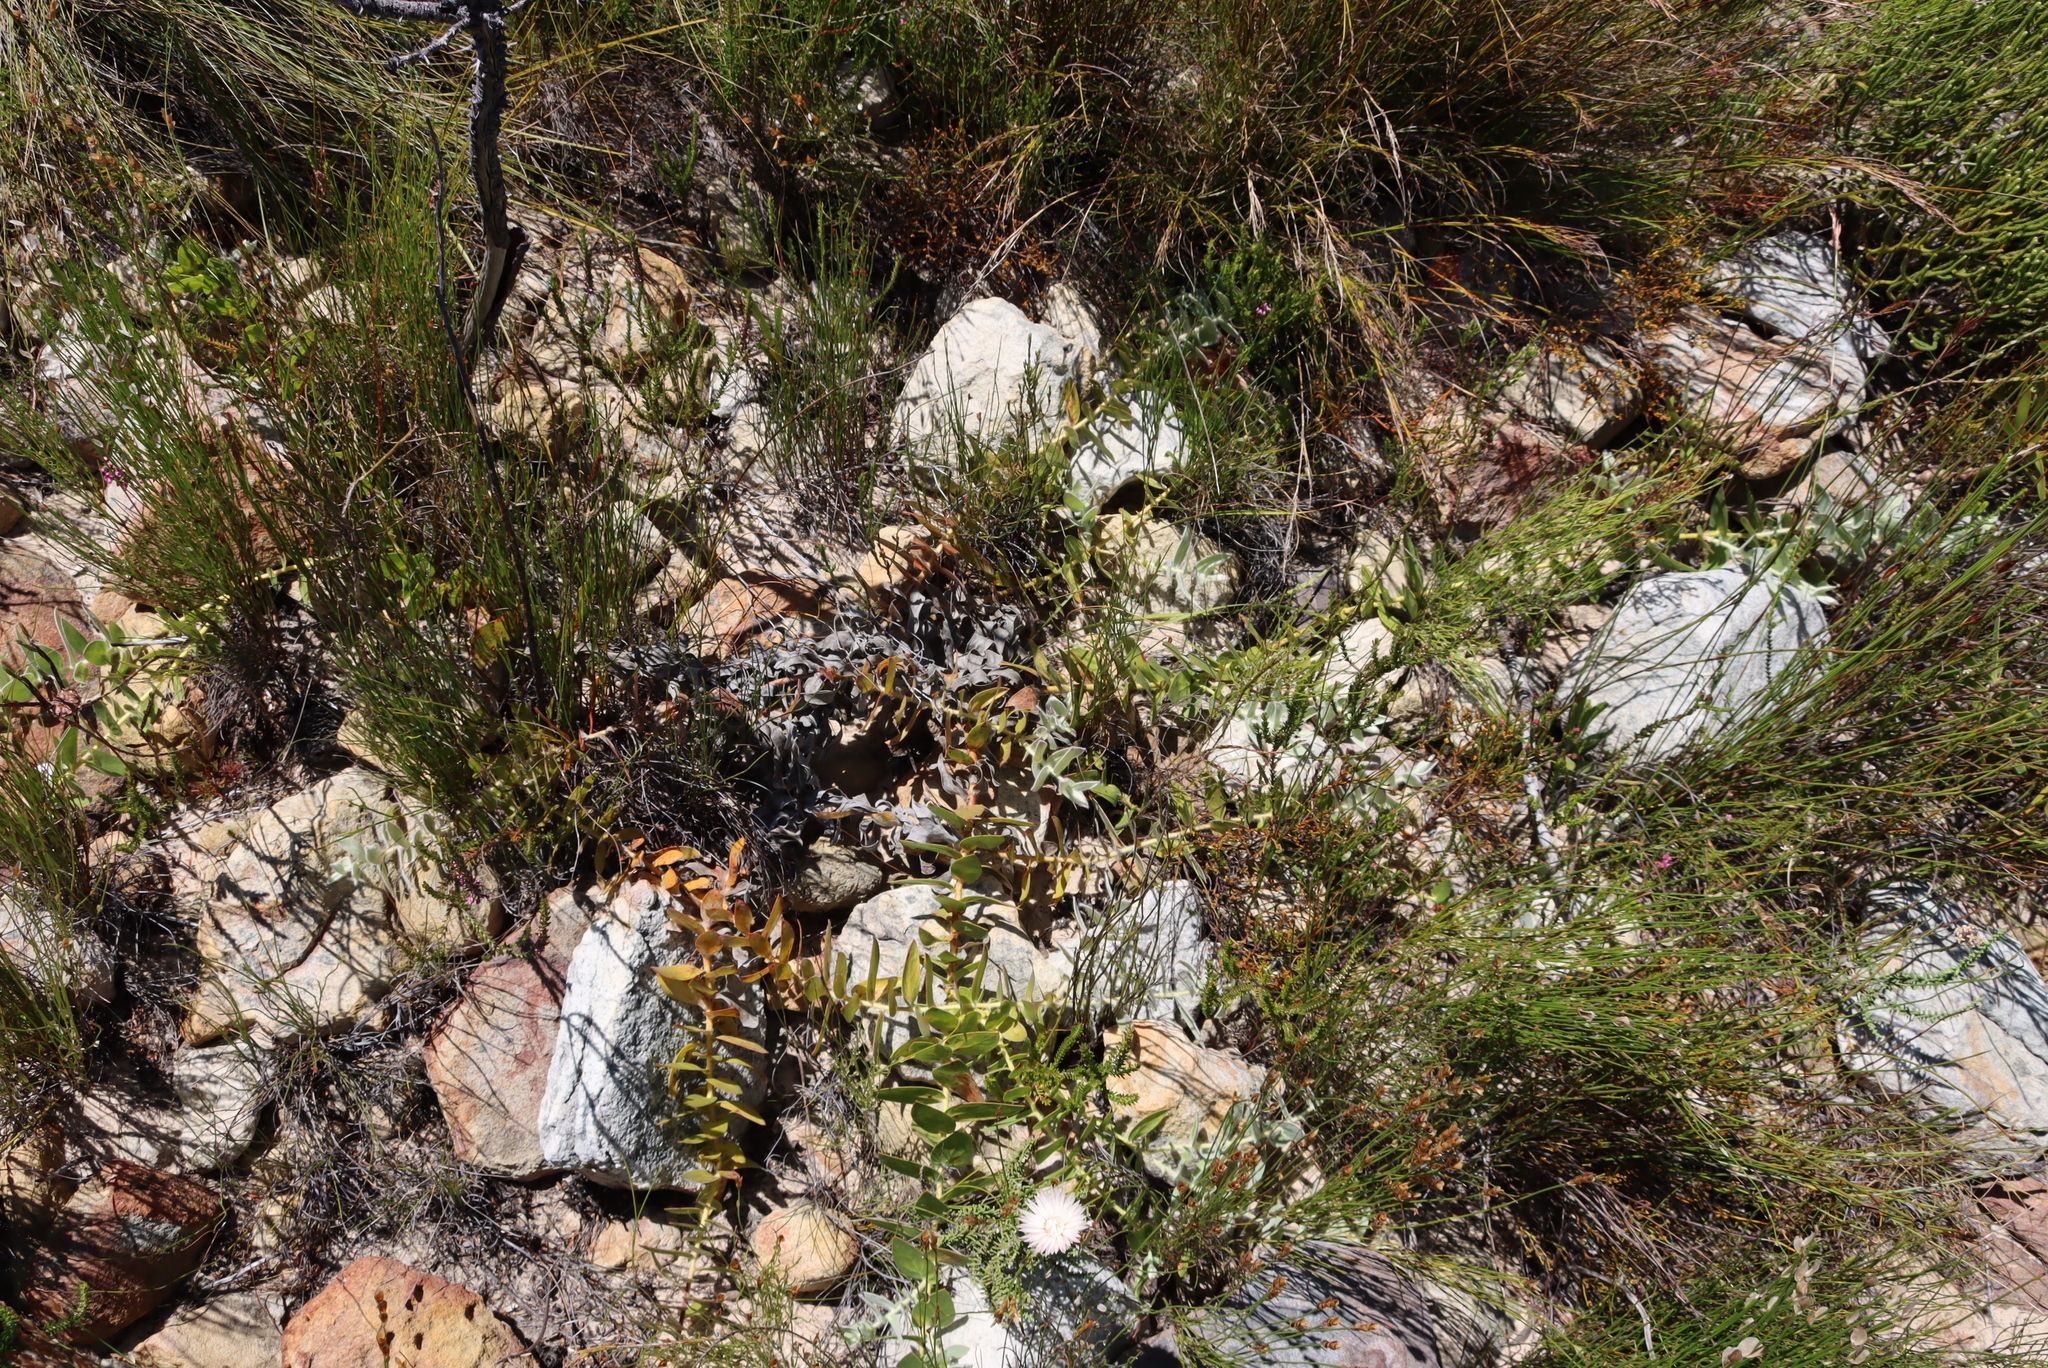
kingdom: Plantae
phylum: Tracheophyta
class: Magnoliopsida
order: Proteales
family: Proteaceae
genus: Leucospermum
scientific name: Leucospermum cordatum
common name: Heart-leaf pincushion
